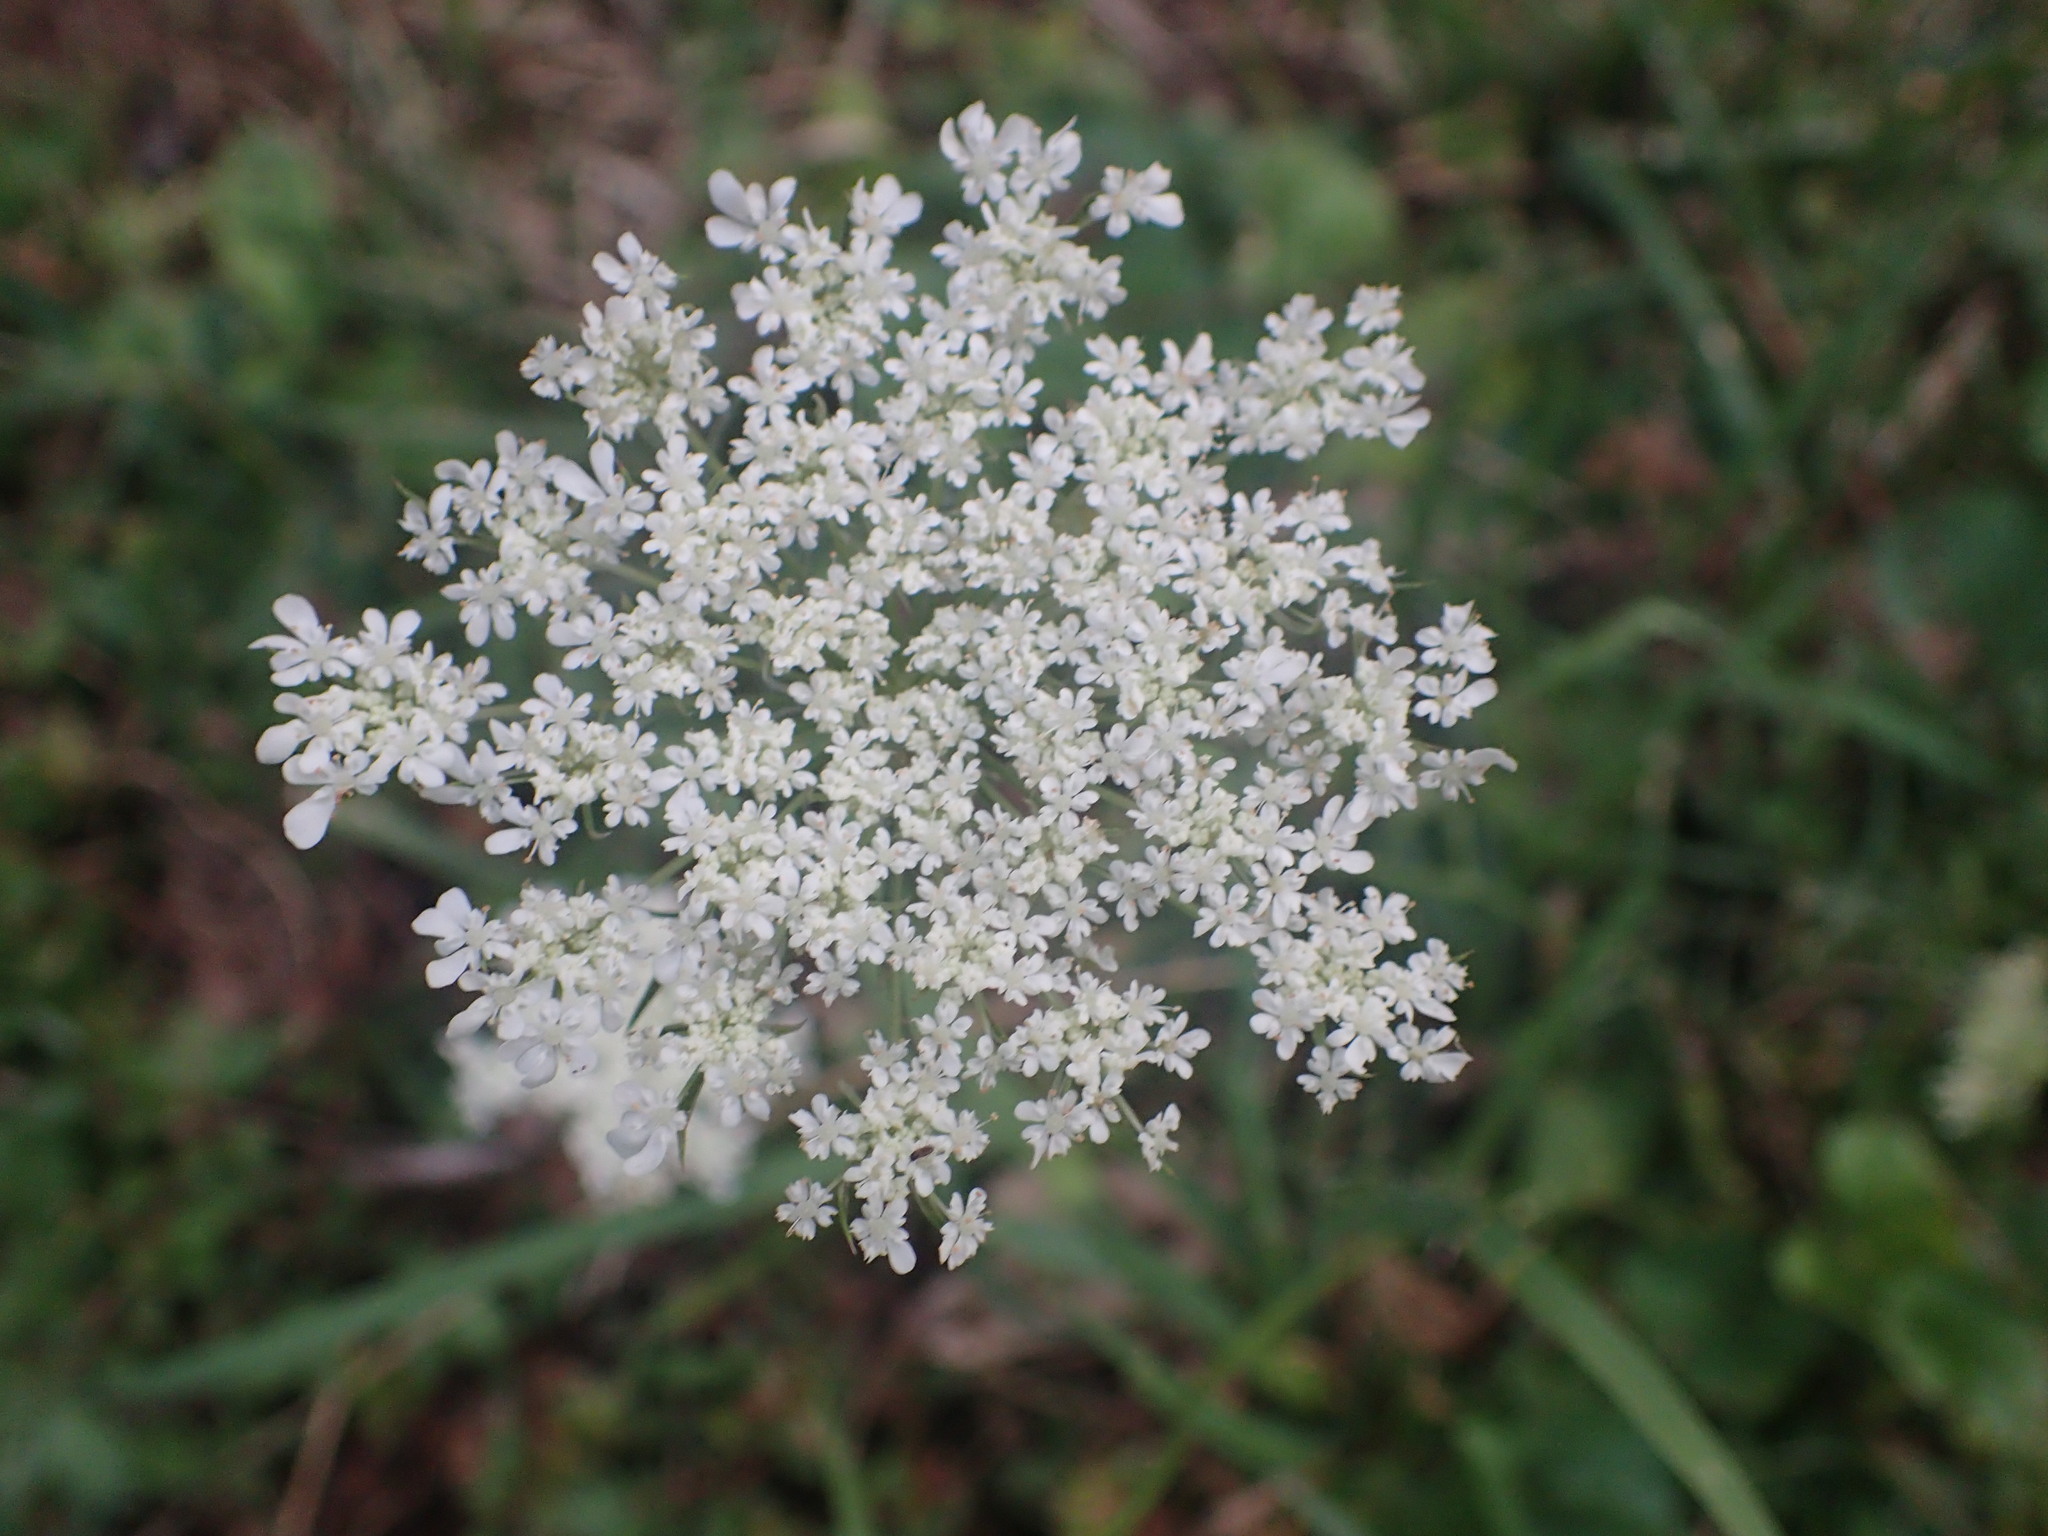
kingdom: Plantae
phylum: Tracheophyta
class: Magnoliopsida
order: Apiales
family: Apiaceae
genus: Daucus
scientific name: Daucus carota
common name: Wild carrot
